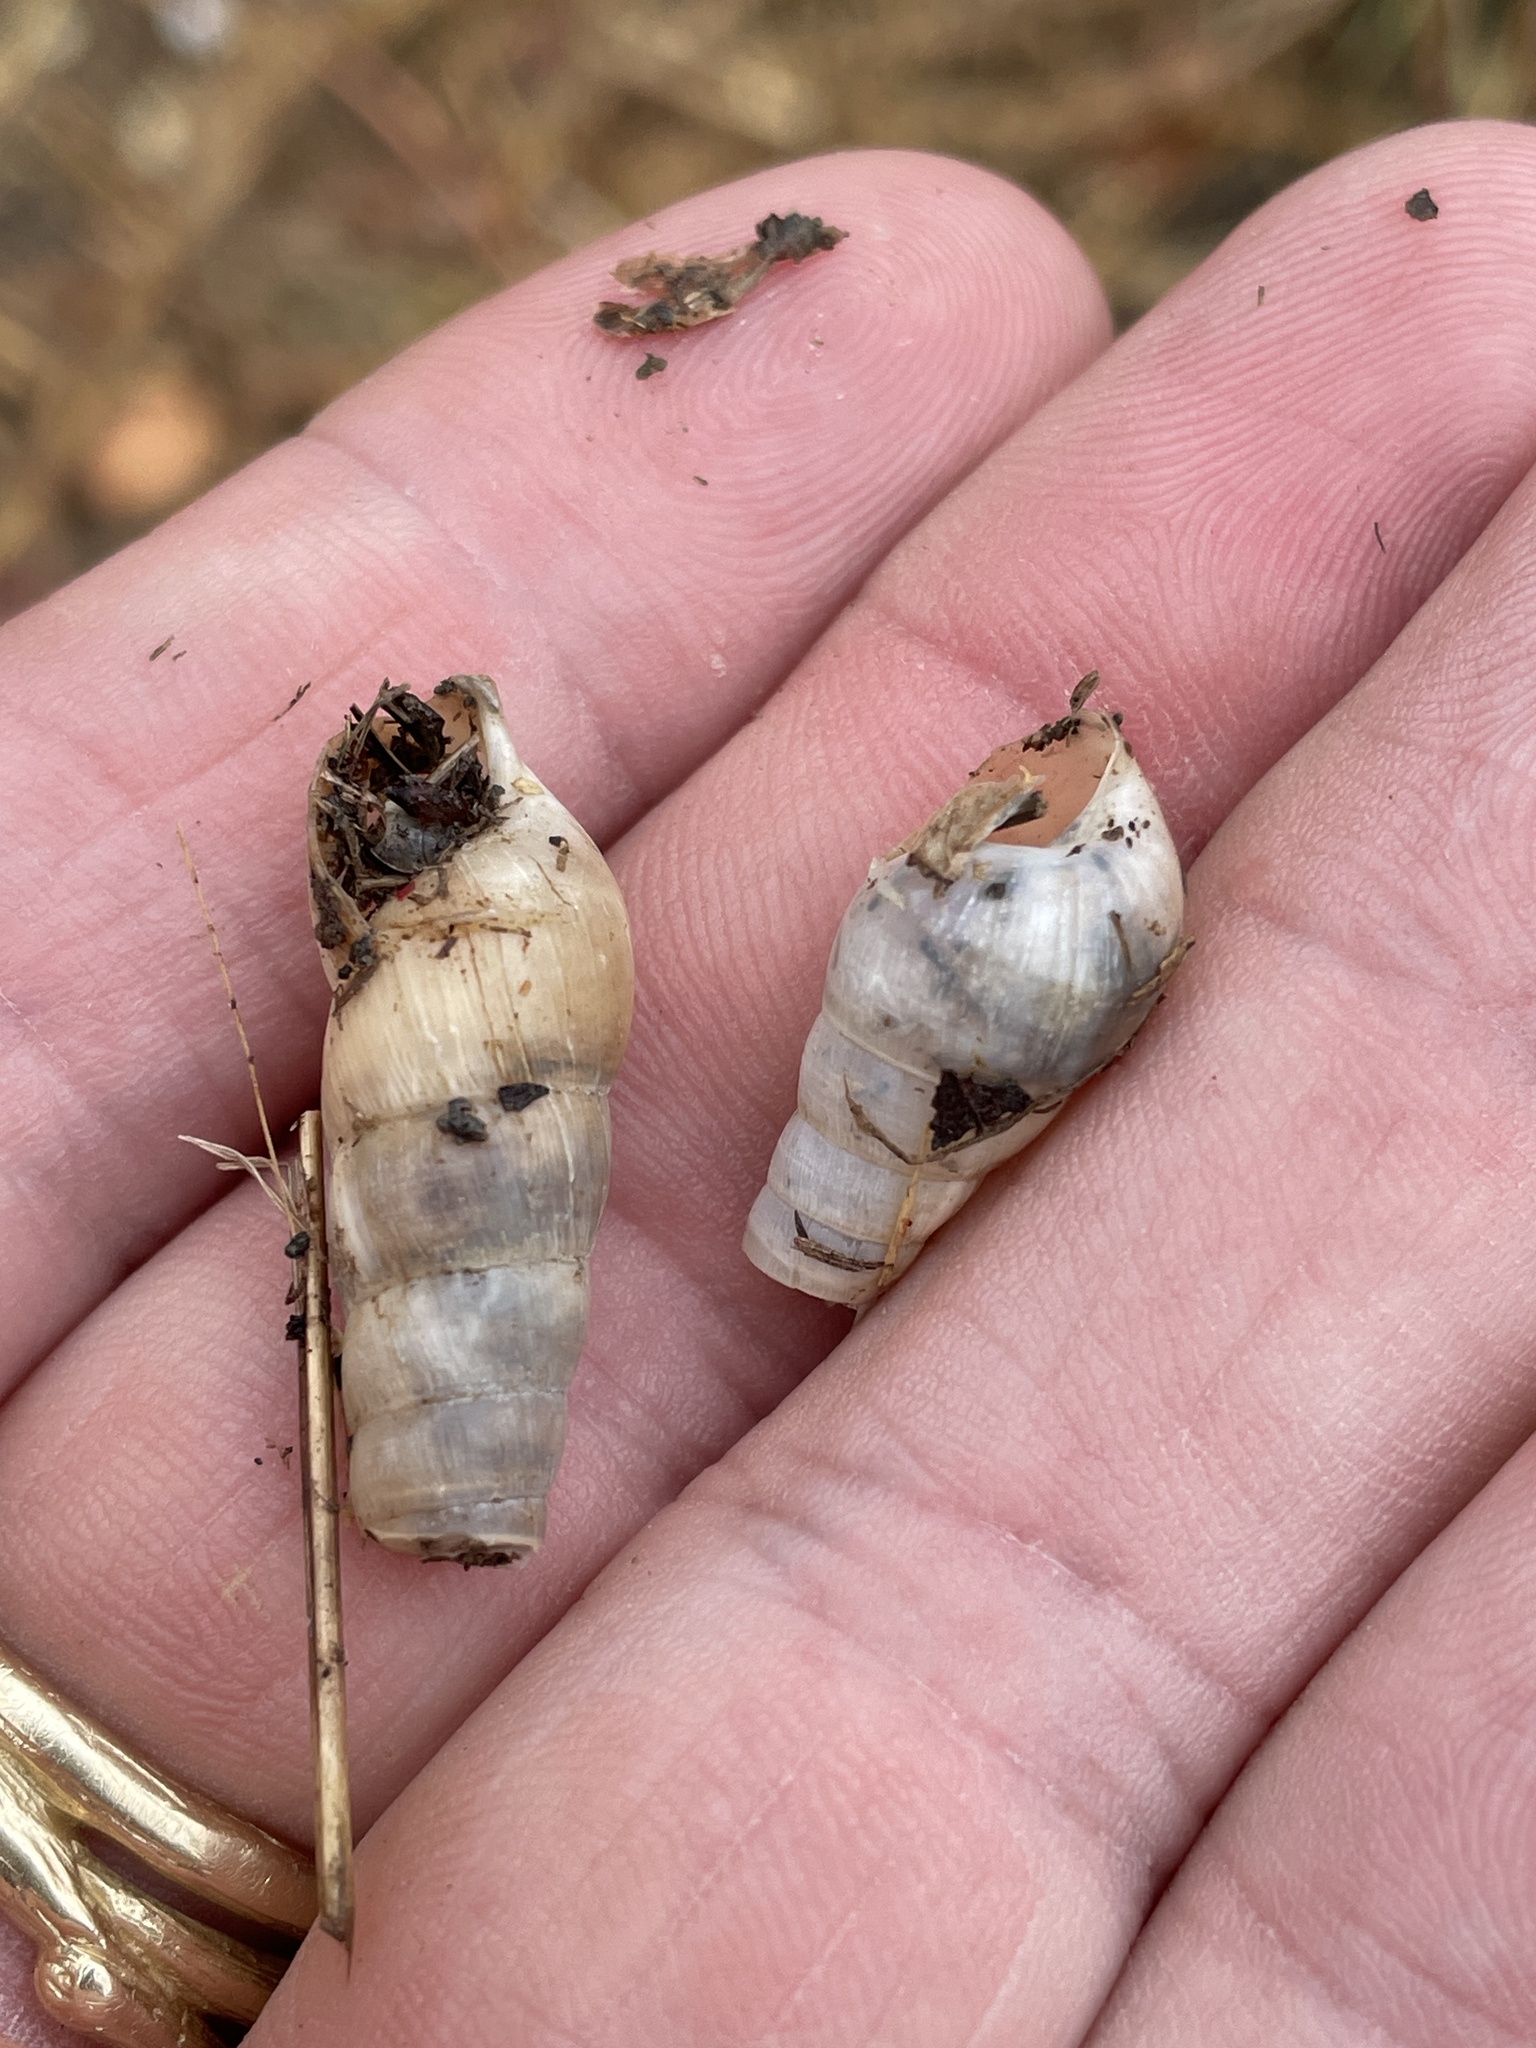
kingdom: Animalia
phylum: Mollusca
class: Gastropoda
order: Stylommatophora
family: Achatinidae
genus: Rumina
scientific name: Rumina decollata
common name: Decollate snail
